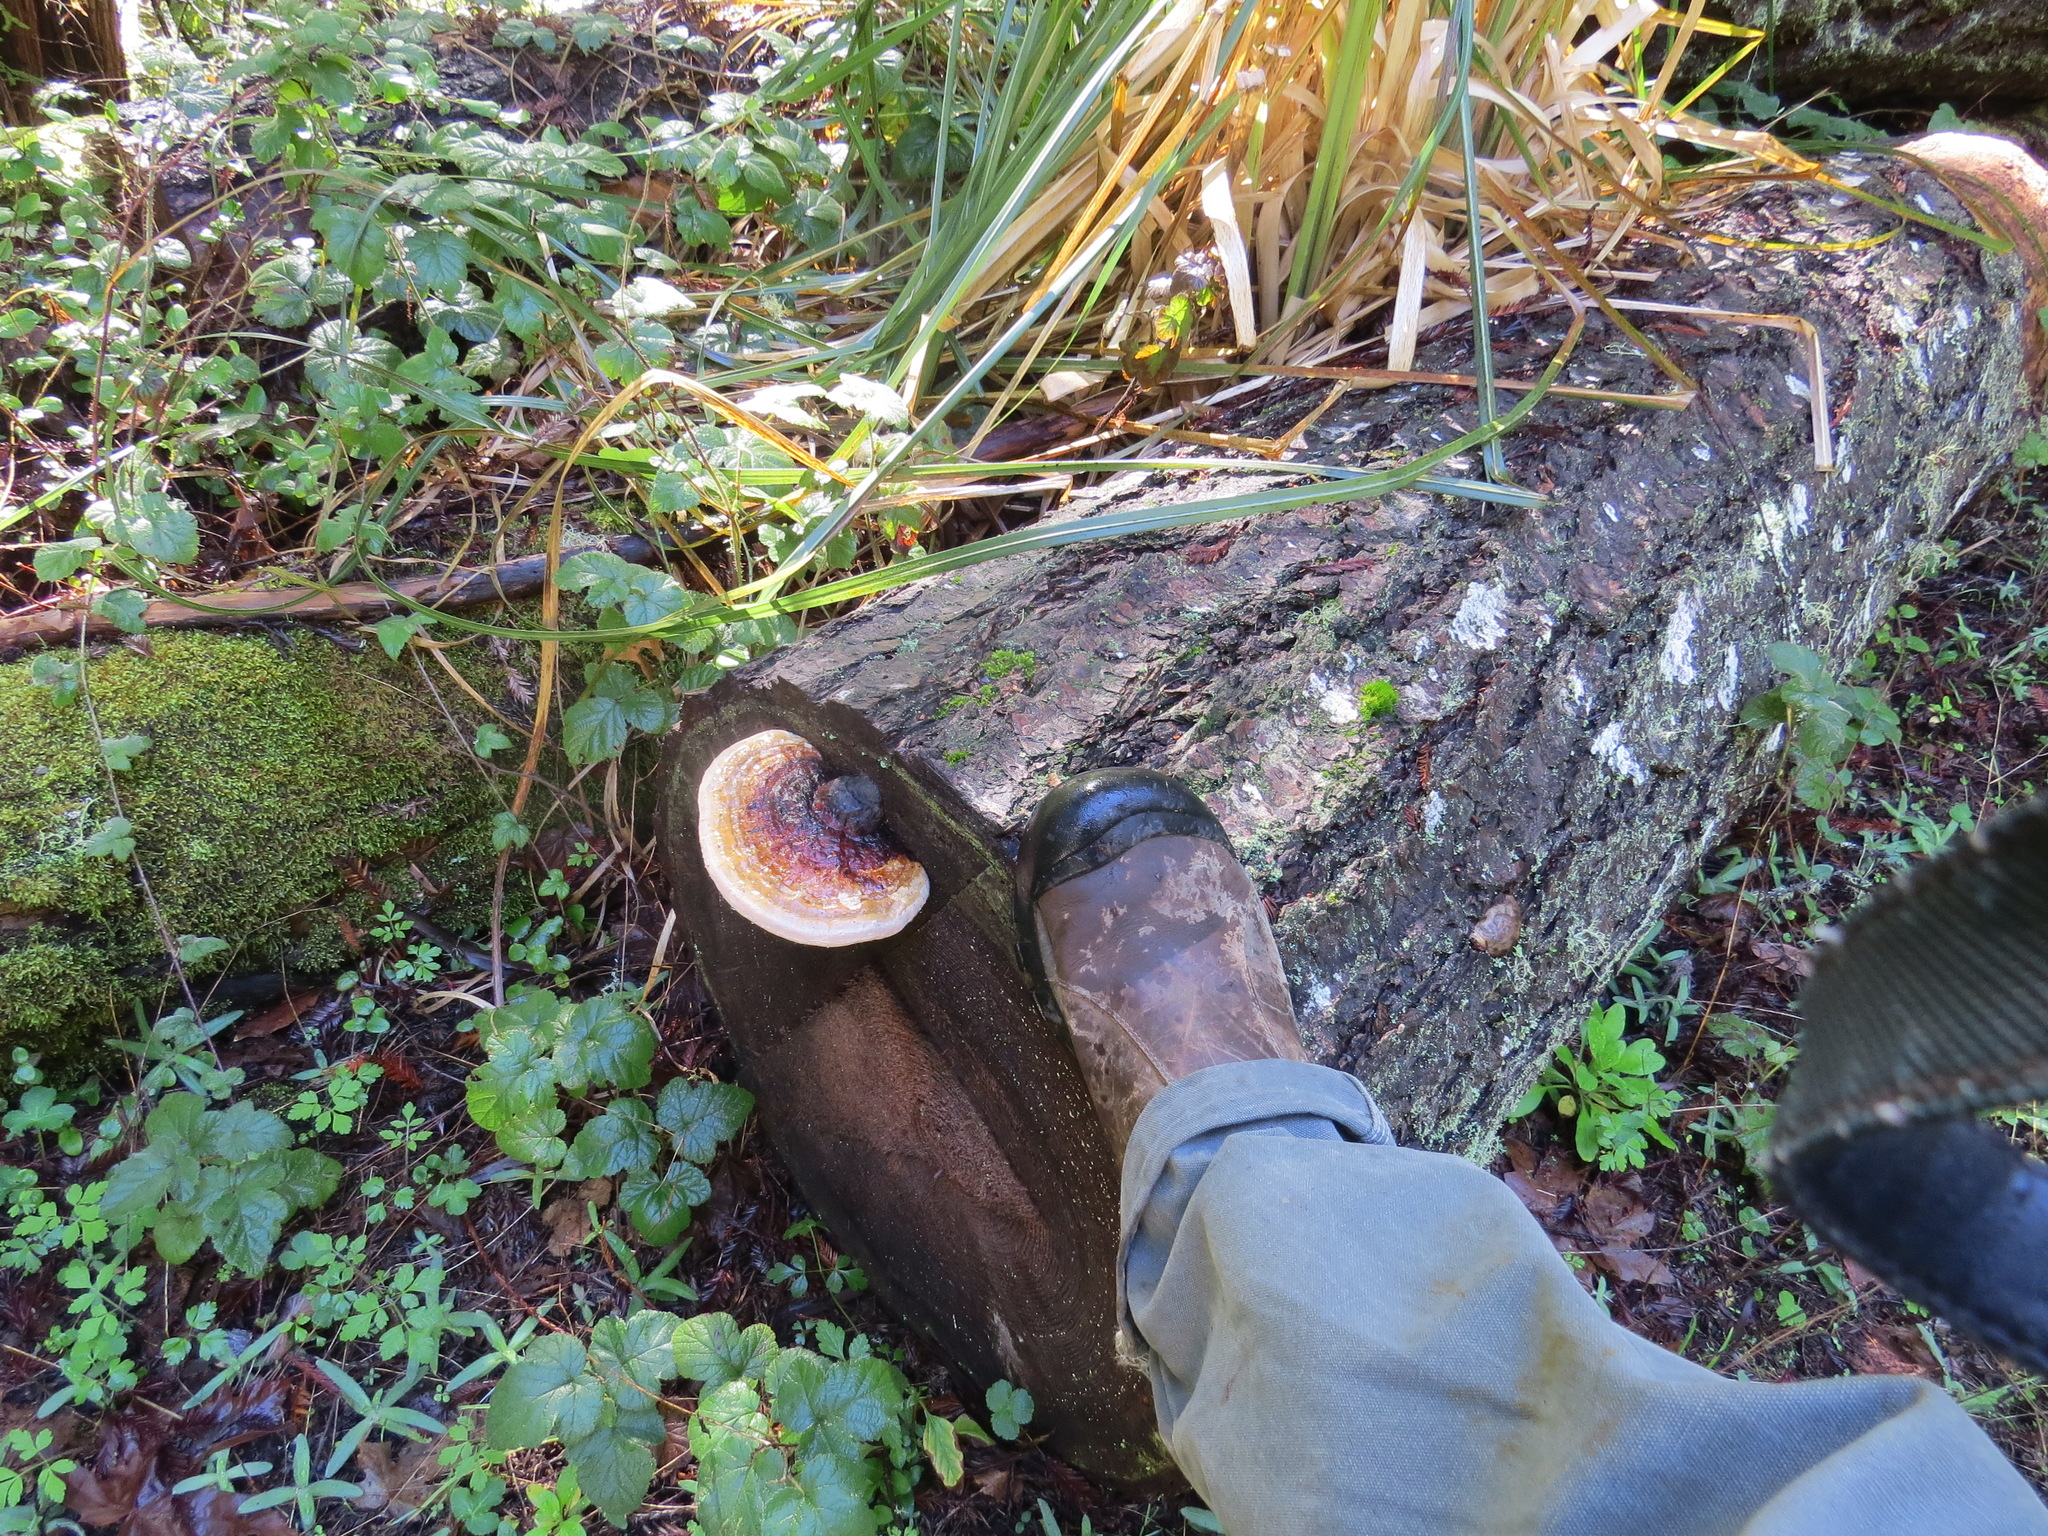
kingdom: Fungi
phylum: Basidiomycota
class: Agaricomycetes
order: Polyporales
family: Fomitopsidaceae
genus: Fomitopsis
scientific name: Fomitopsis mounceae
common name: Northern red belt
